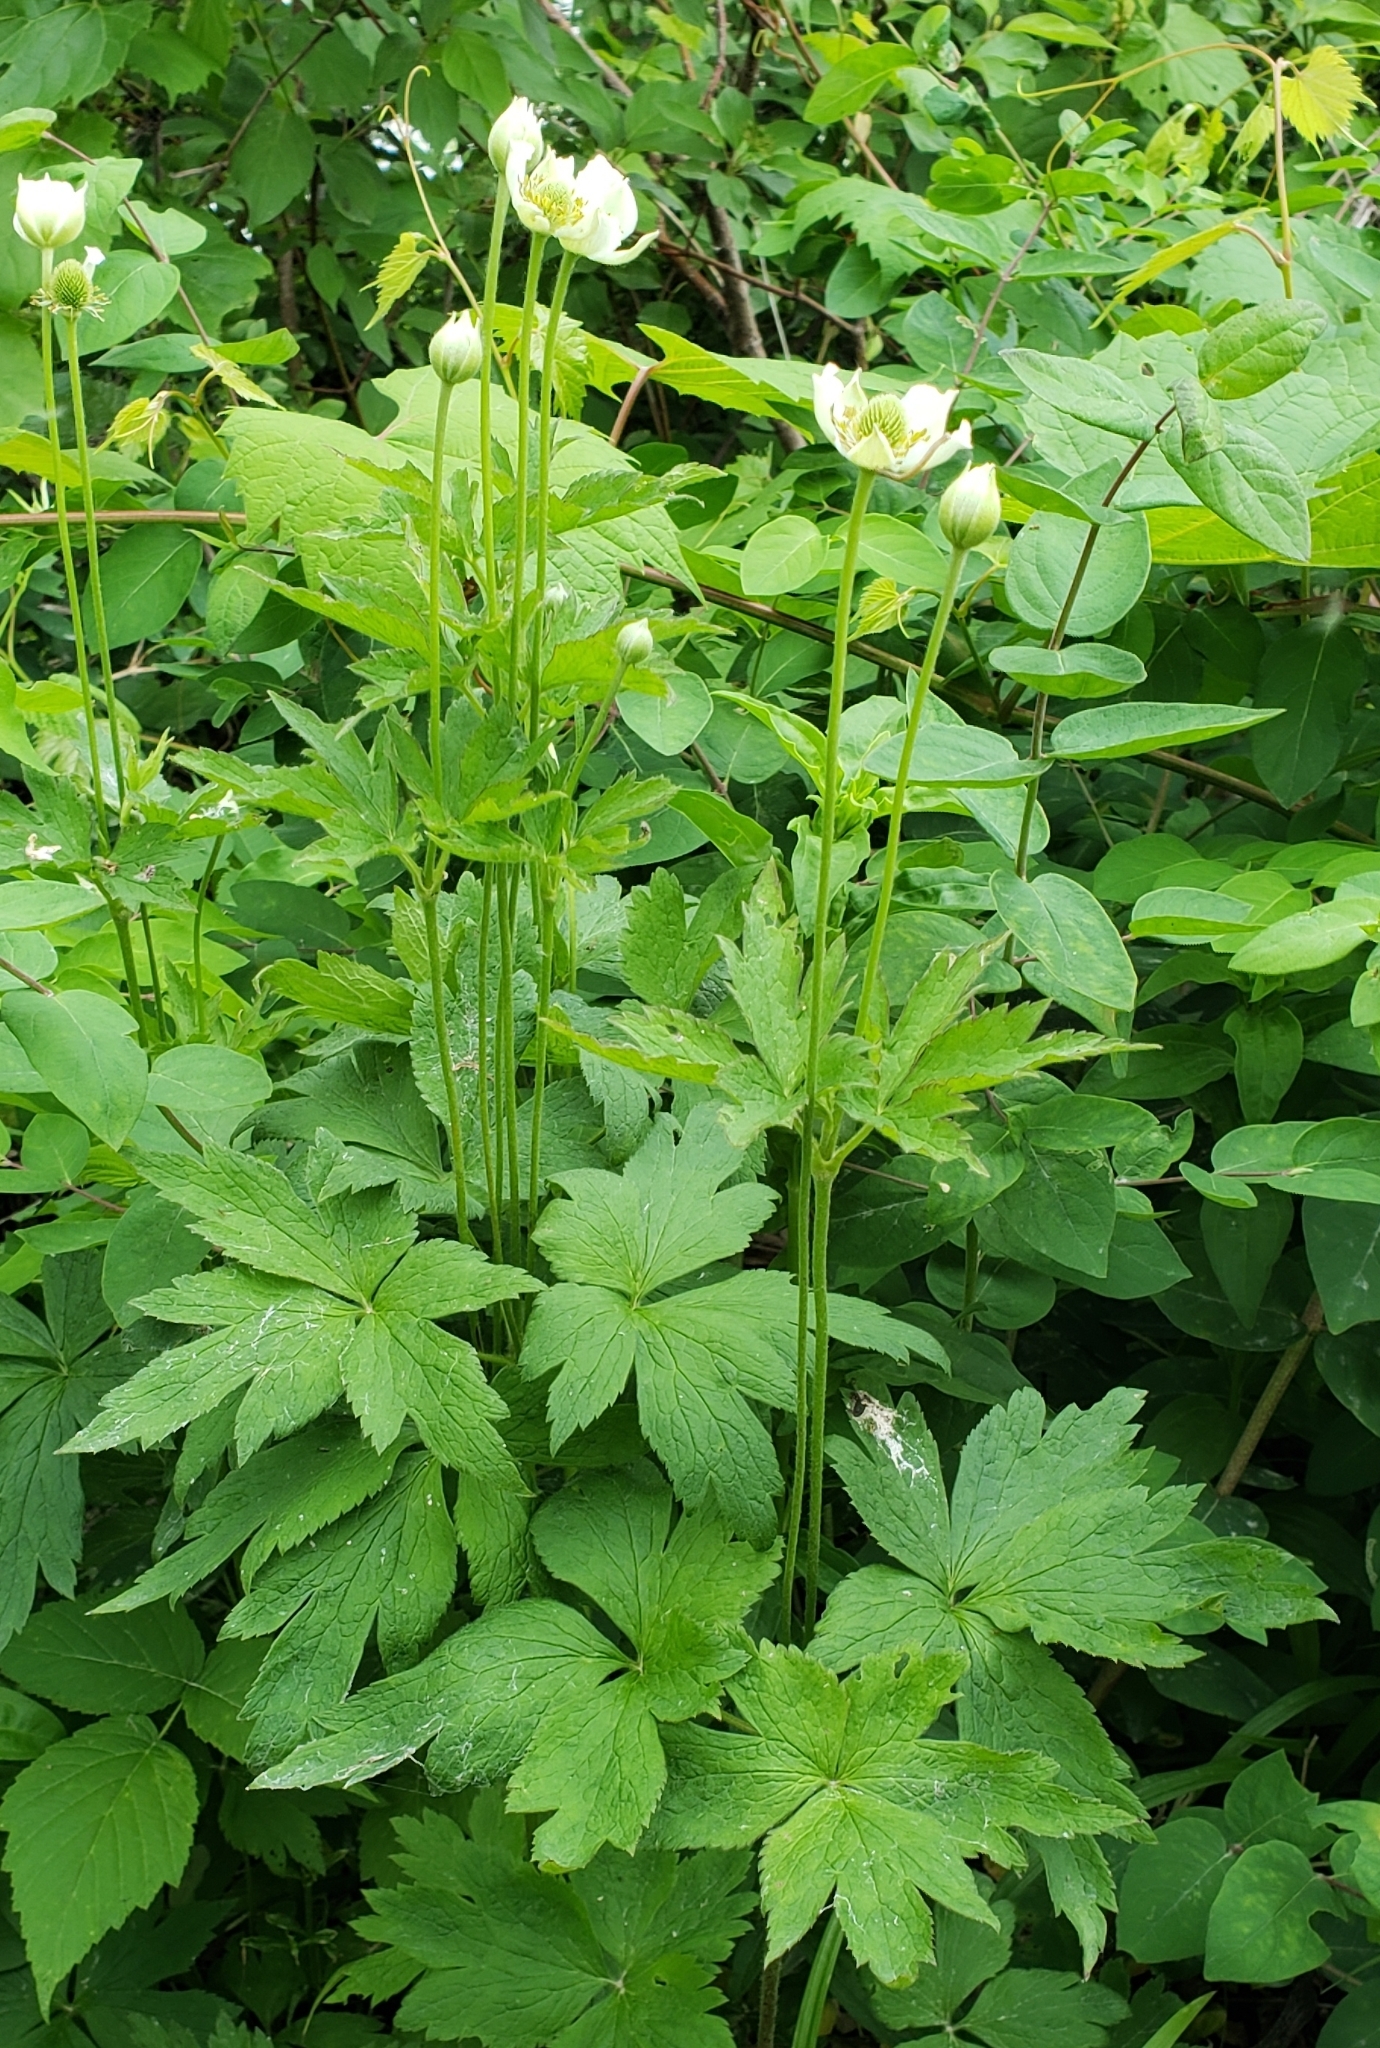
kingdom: Plantae
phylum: Tracheophyta
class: Magnoliopsida
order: Ranunculales
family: Ranunculaceae
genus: Anemone
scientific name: Anemone virginiana
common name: Tall anemone
